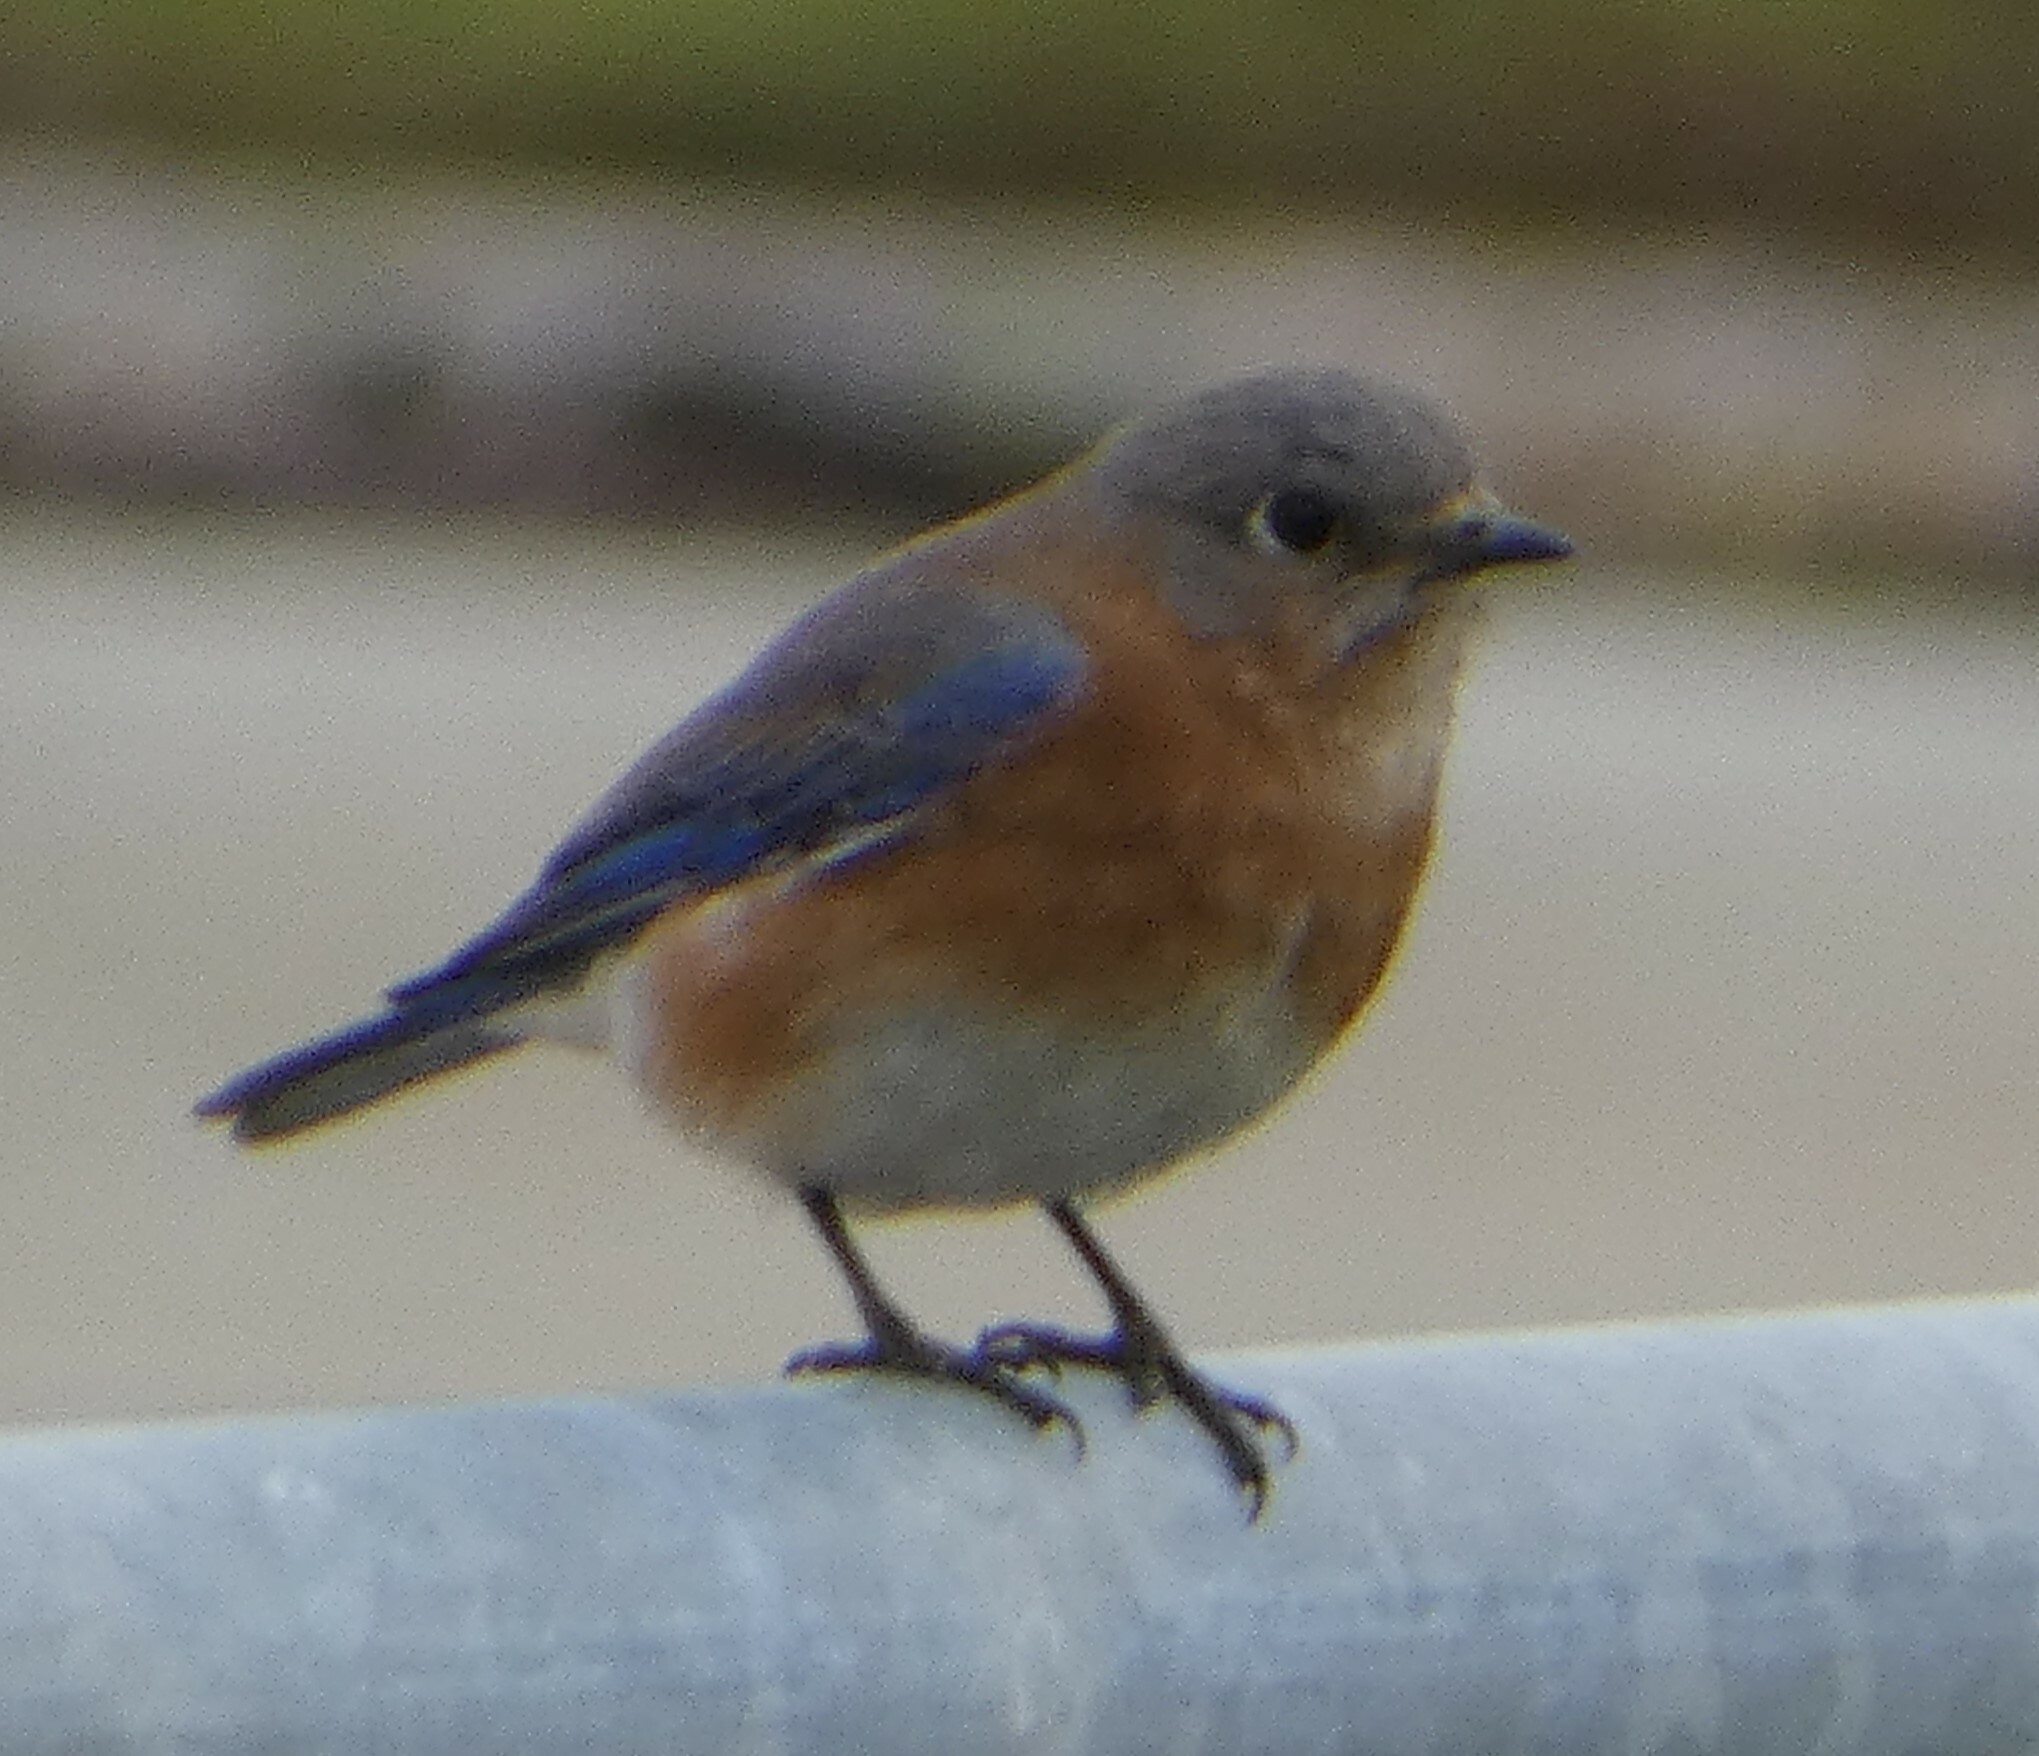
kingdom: Animalia
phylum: Chordata
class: Aves
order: Passeriformes
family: Turdidae
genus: Sialia
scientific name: Sialia sialis
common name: Eastern bluebird
